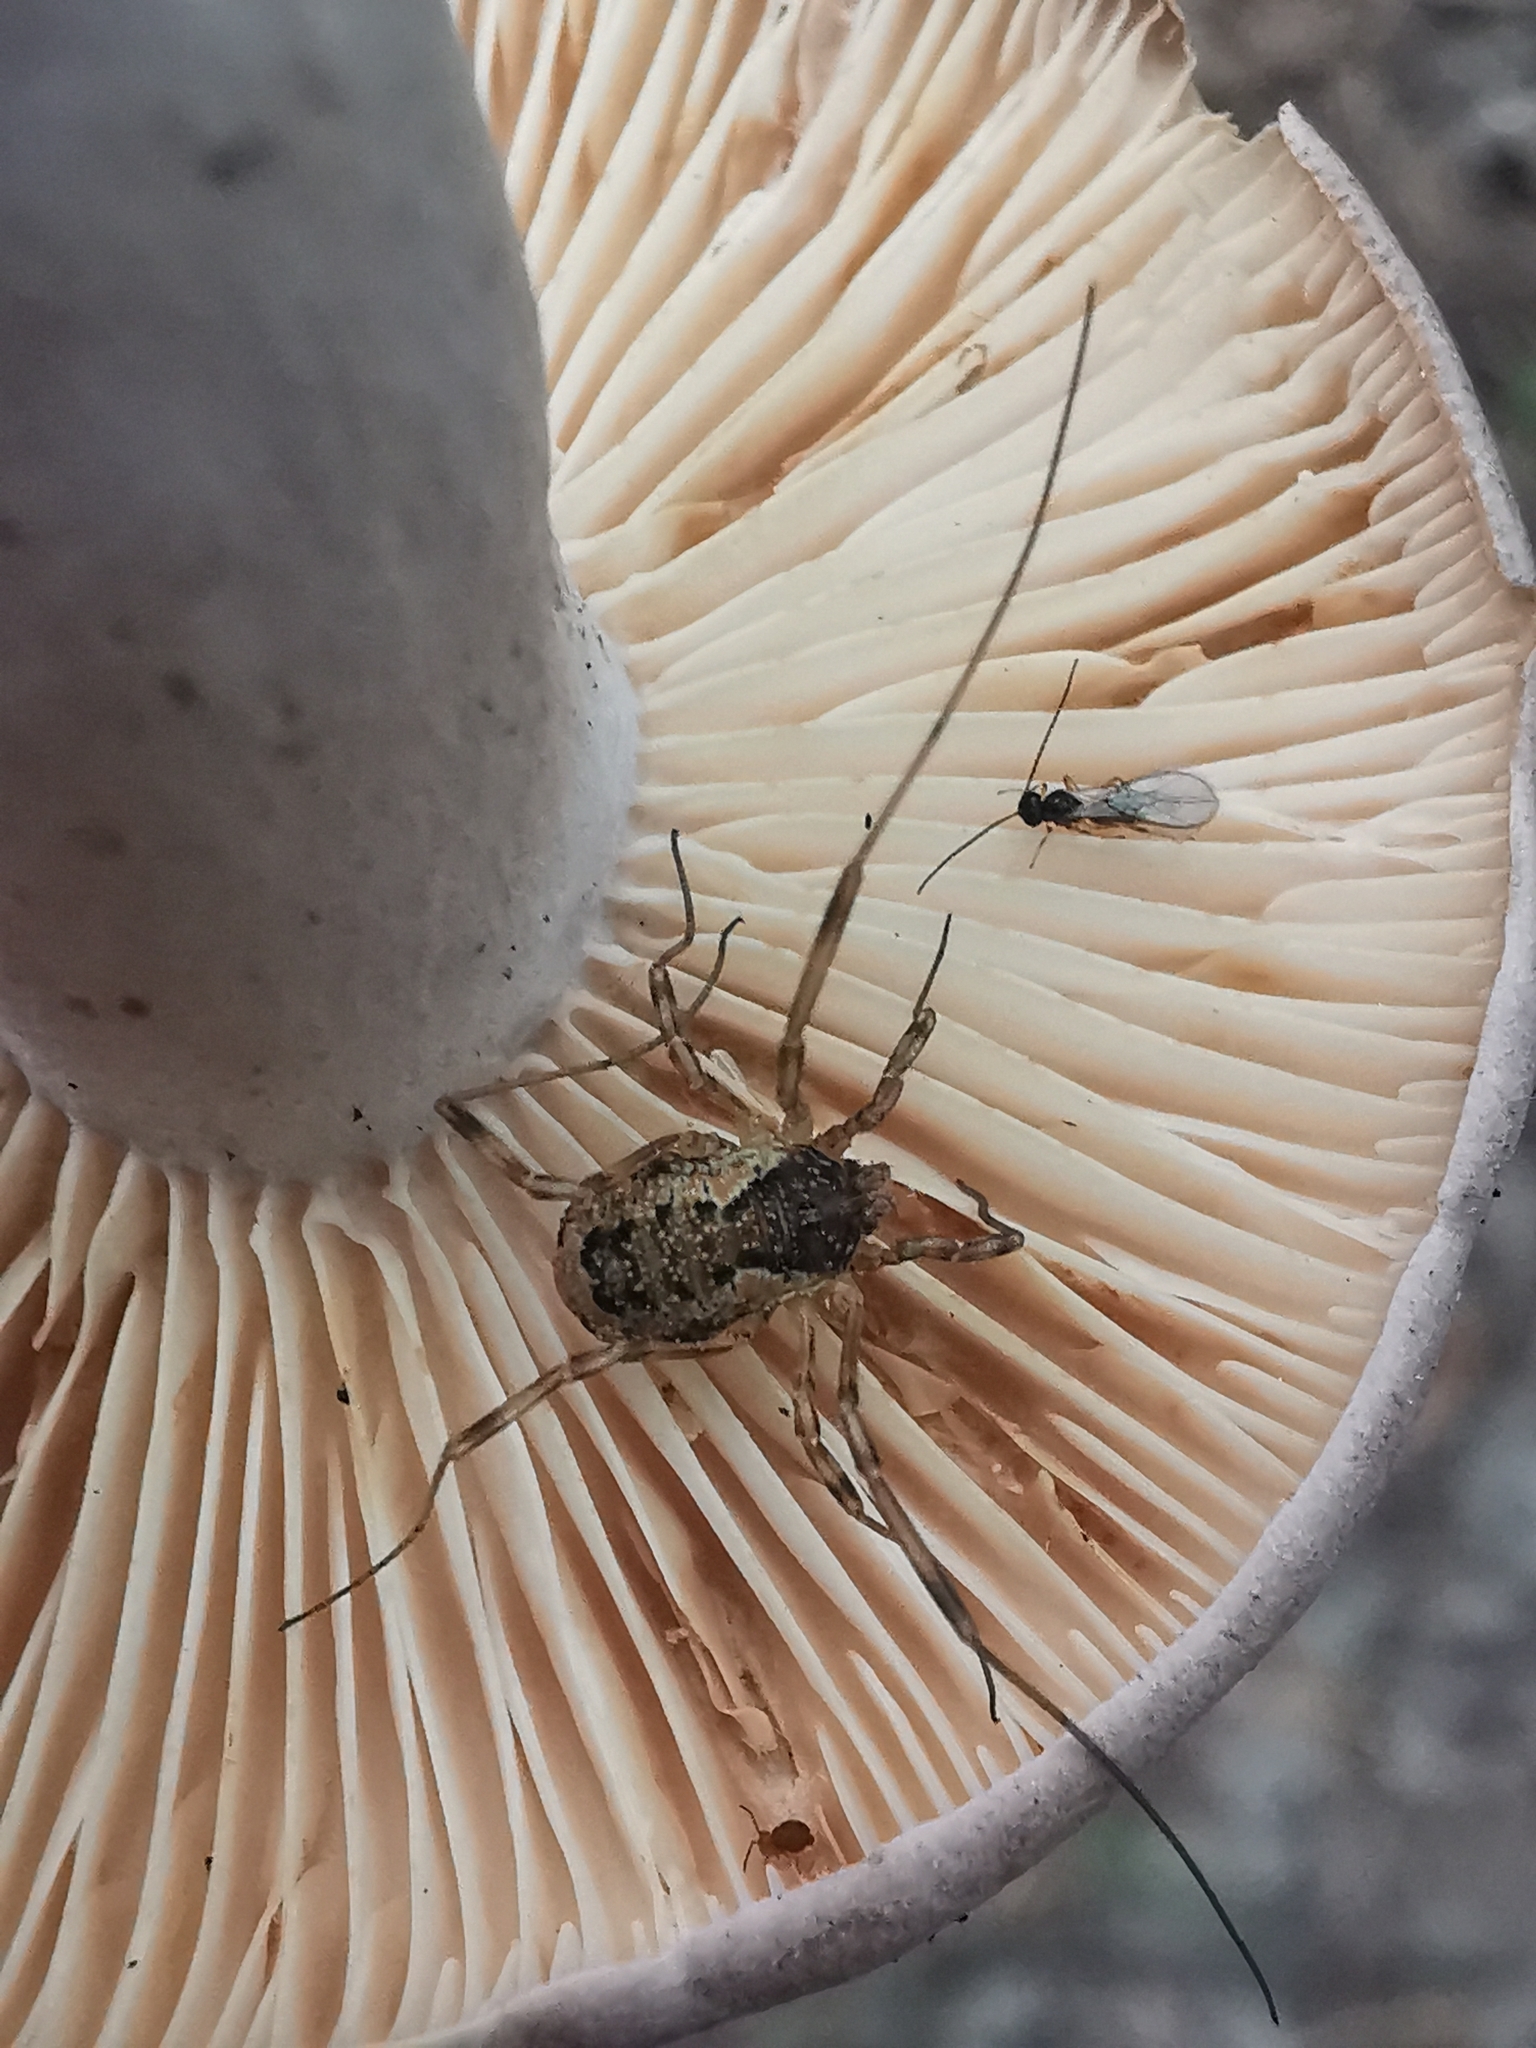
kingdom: Animalia
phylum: Arthropoda
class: Arachnida
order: Opiliones
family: Phalangiidae
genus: Oligolophus
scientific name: Oligolophus tridens
